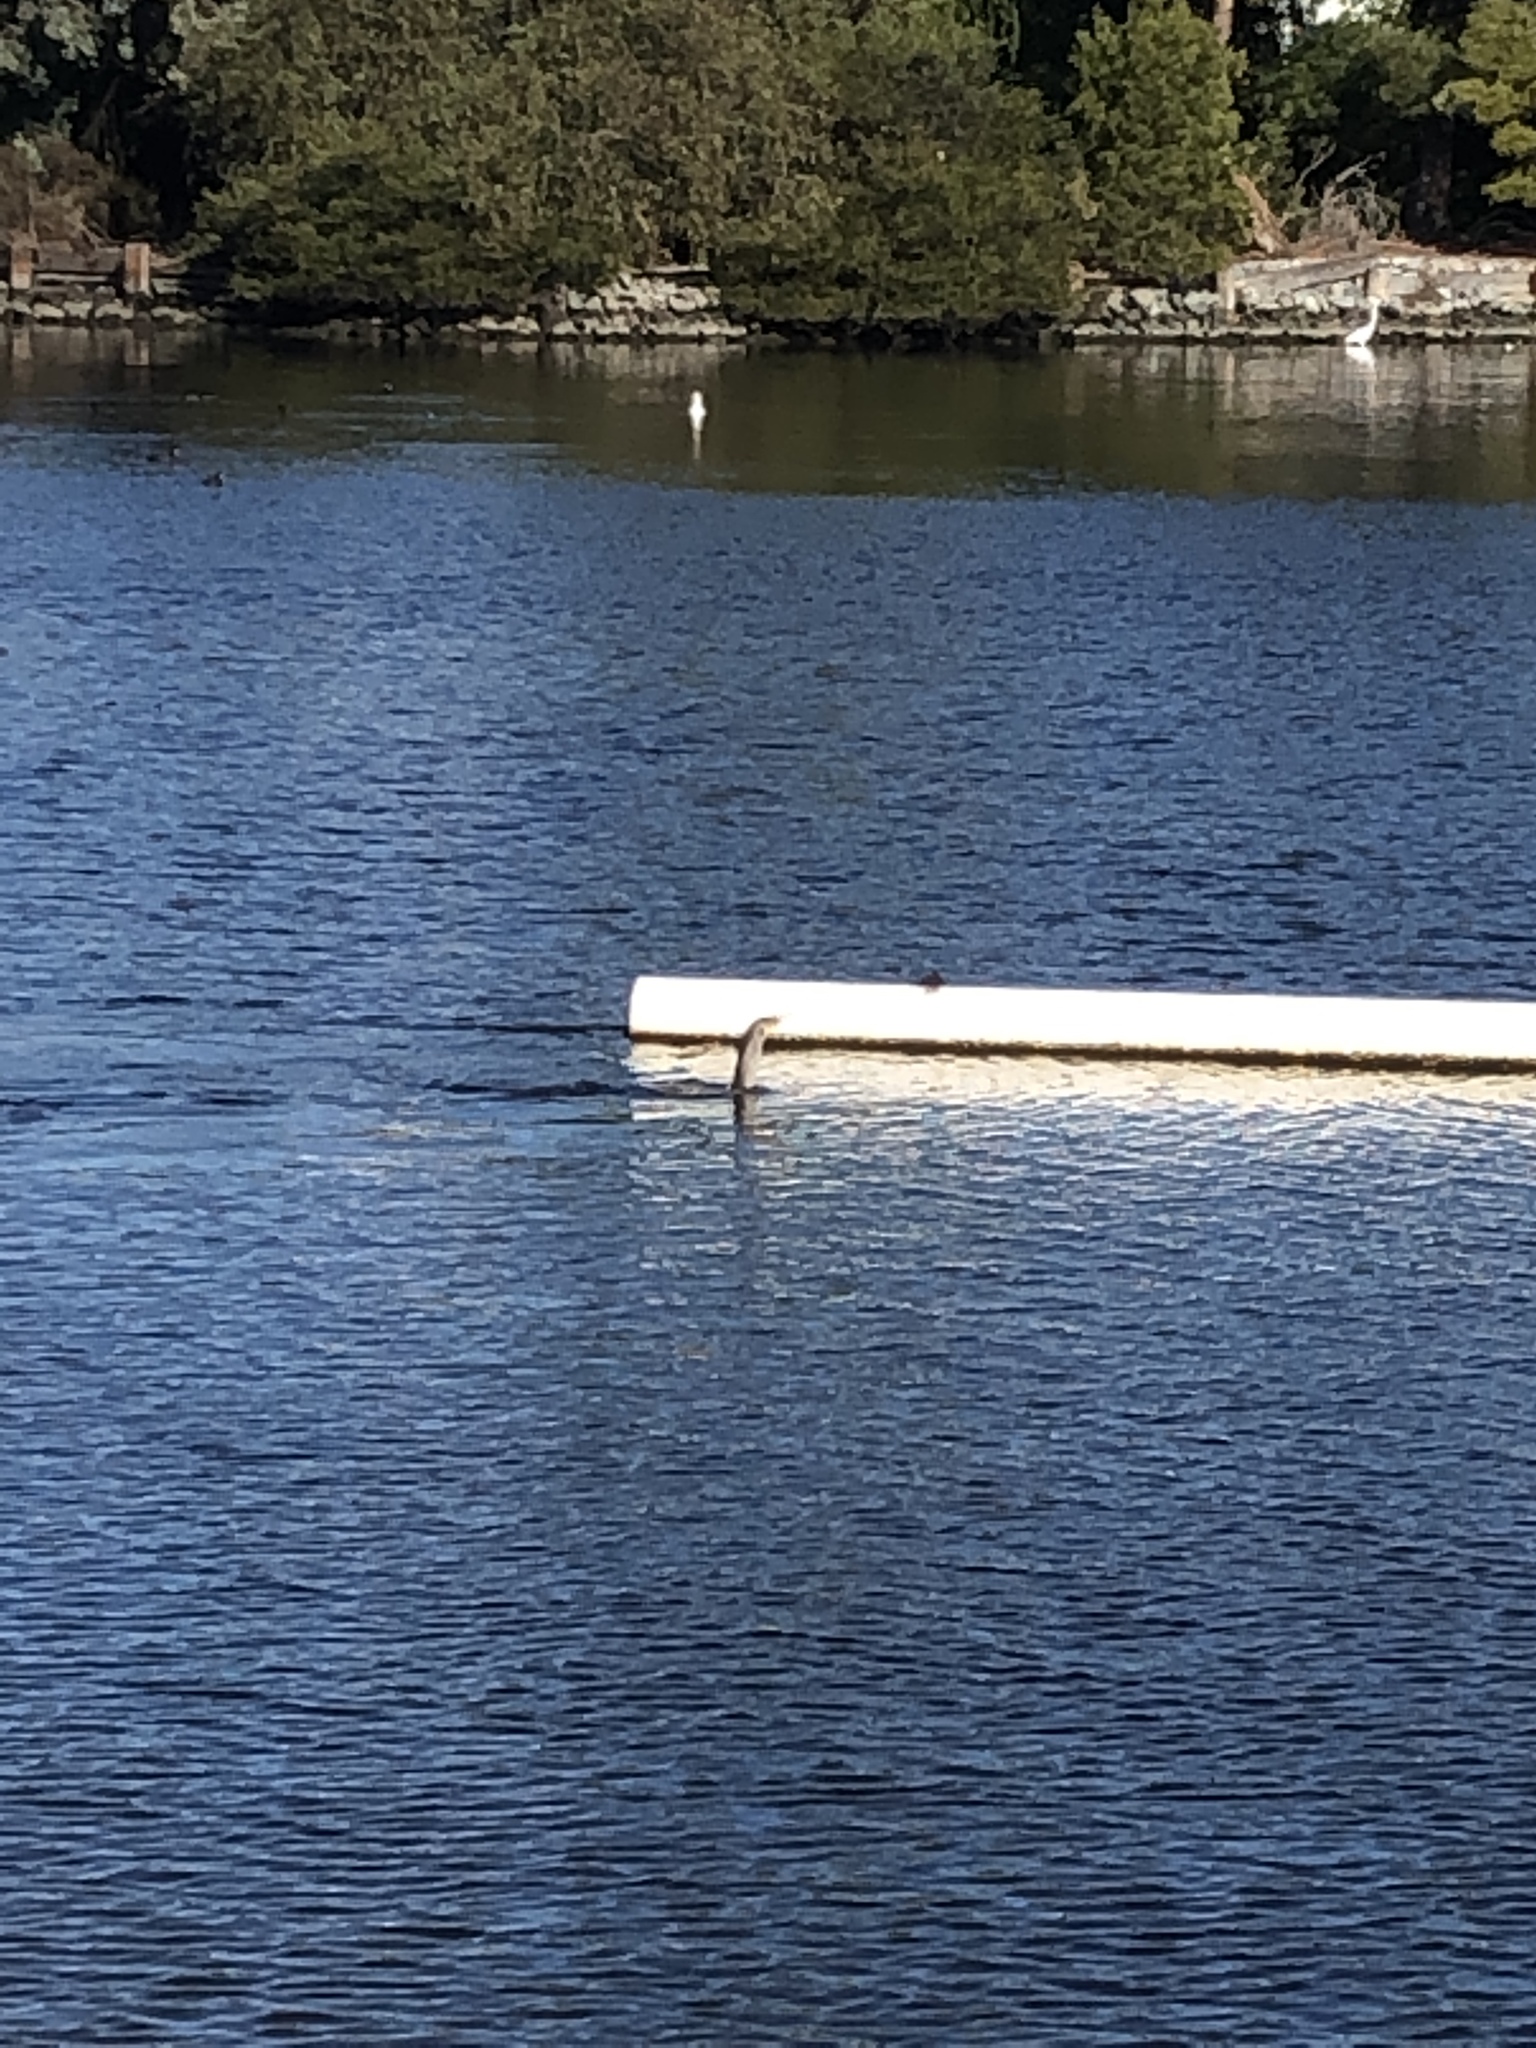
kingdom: Animalia
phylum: Chordata
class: Aves
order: Suliformes
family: Phalacrocoracidae
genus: Phalacrocorax
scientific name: Phalacrocorax auritus
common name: Double-crested cormorant
